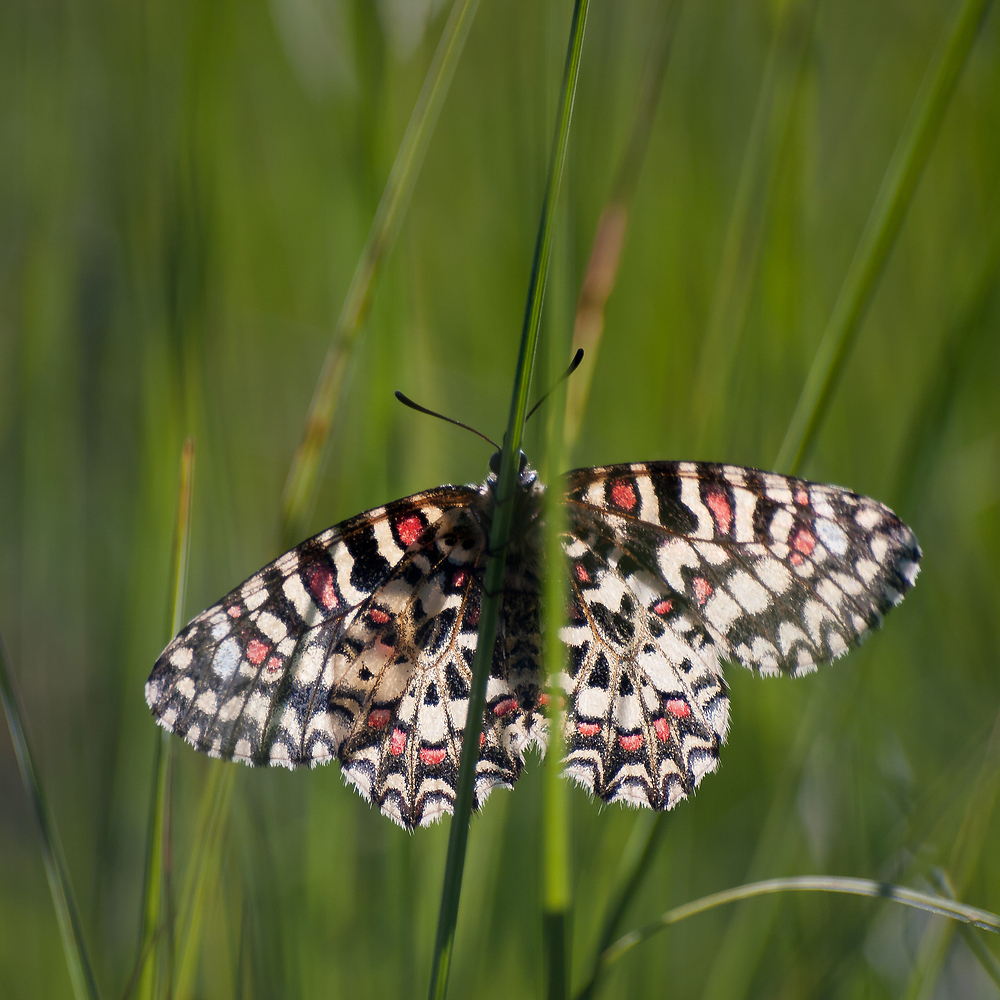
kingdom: Animalia
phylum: Arthropoda
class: Insecta
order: Lepidoptera
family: Papilionidae
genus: Zerynthia
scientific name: Zerynthia rumina
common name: Spanish festoon
